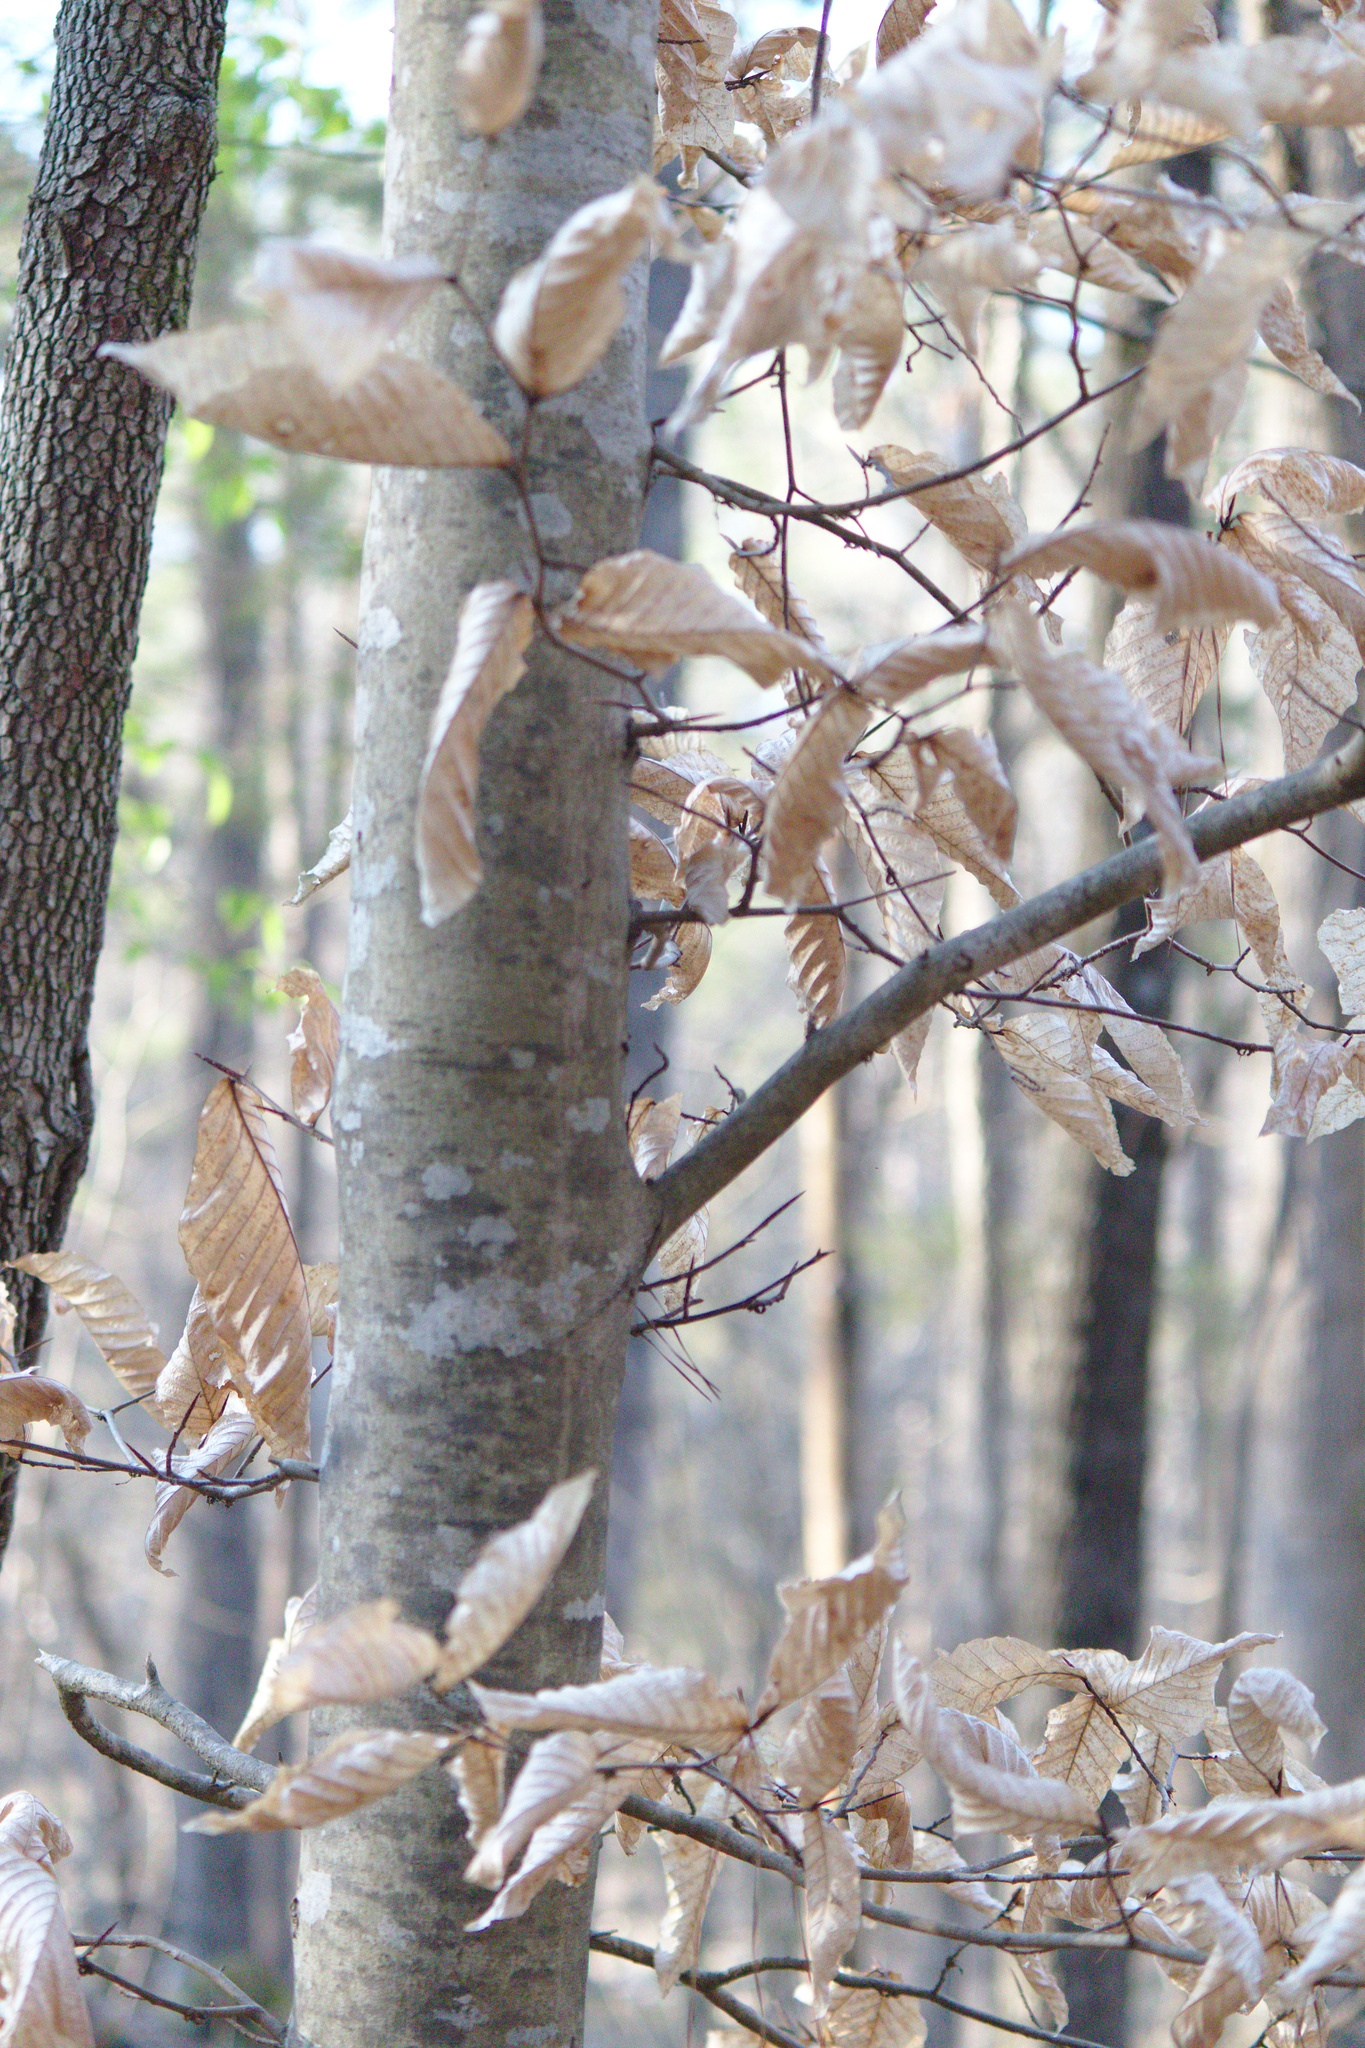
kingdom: Plantae
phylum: Tracheophyta
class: Magnoliopsida
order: Fagales
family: Fagaceae
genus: Fagus
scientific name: Fagus grandifolia
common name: American beech
